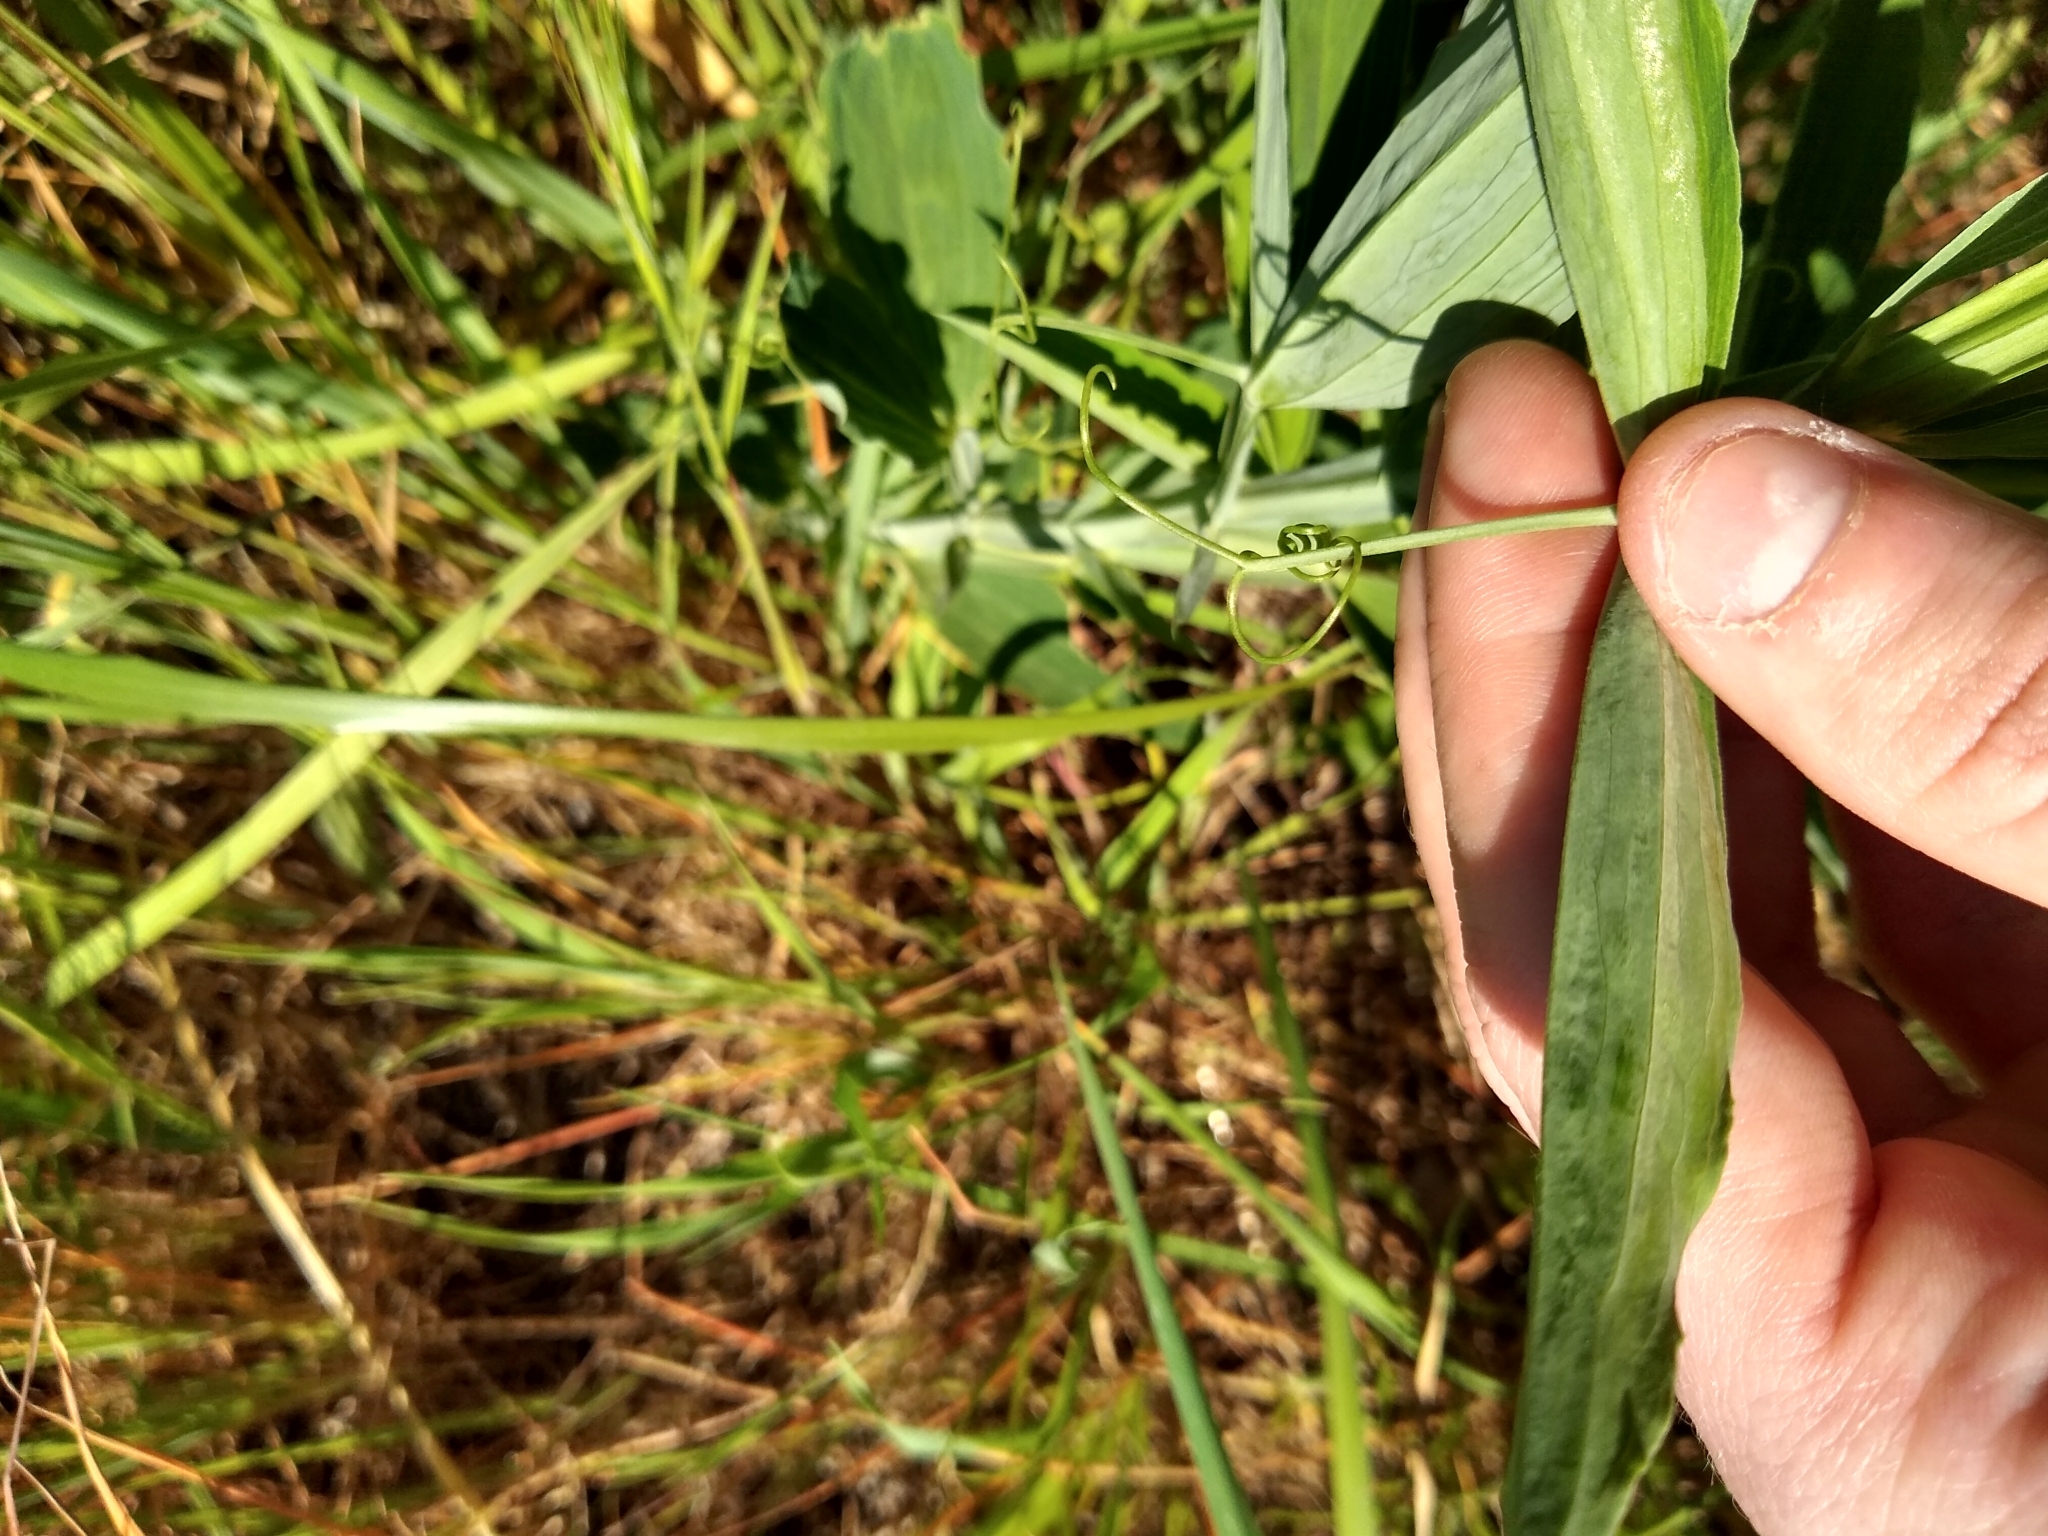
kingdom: Plantae
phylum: Tracheophyta
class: Magnoliopsida
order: Fabales
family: Fabaceae
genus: Lathyrus
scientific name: Lathyrus latifolius
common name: Perennial pea
